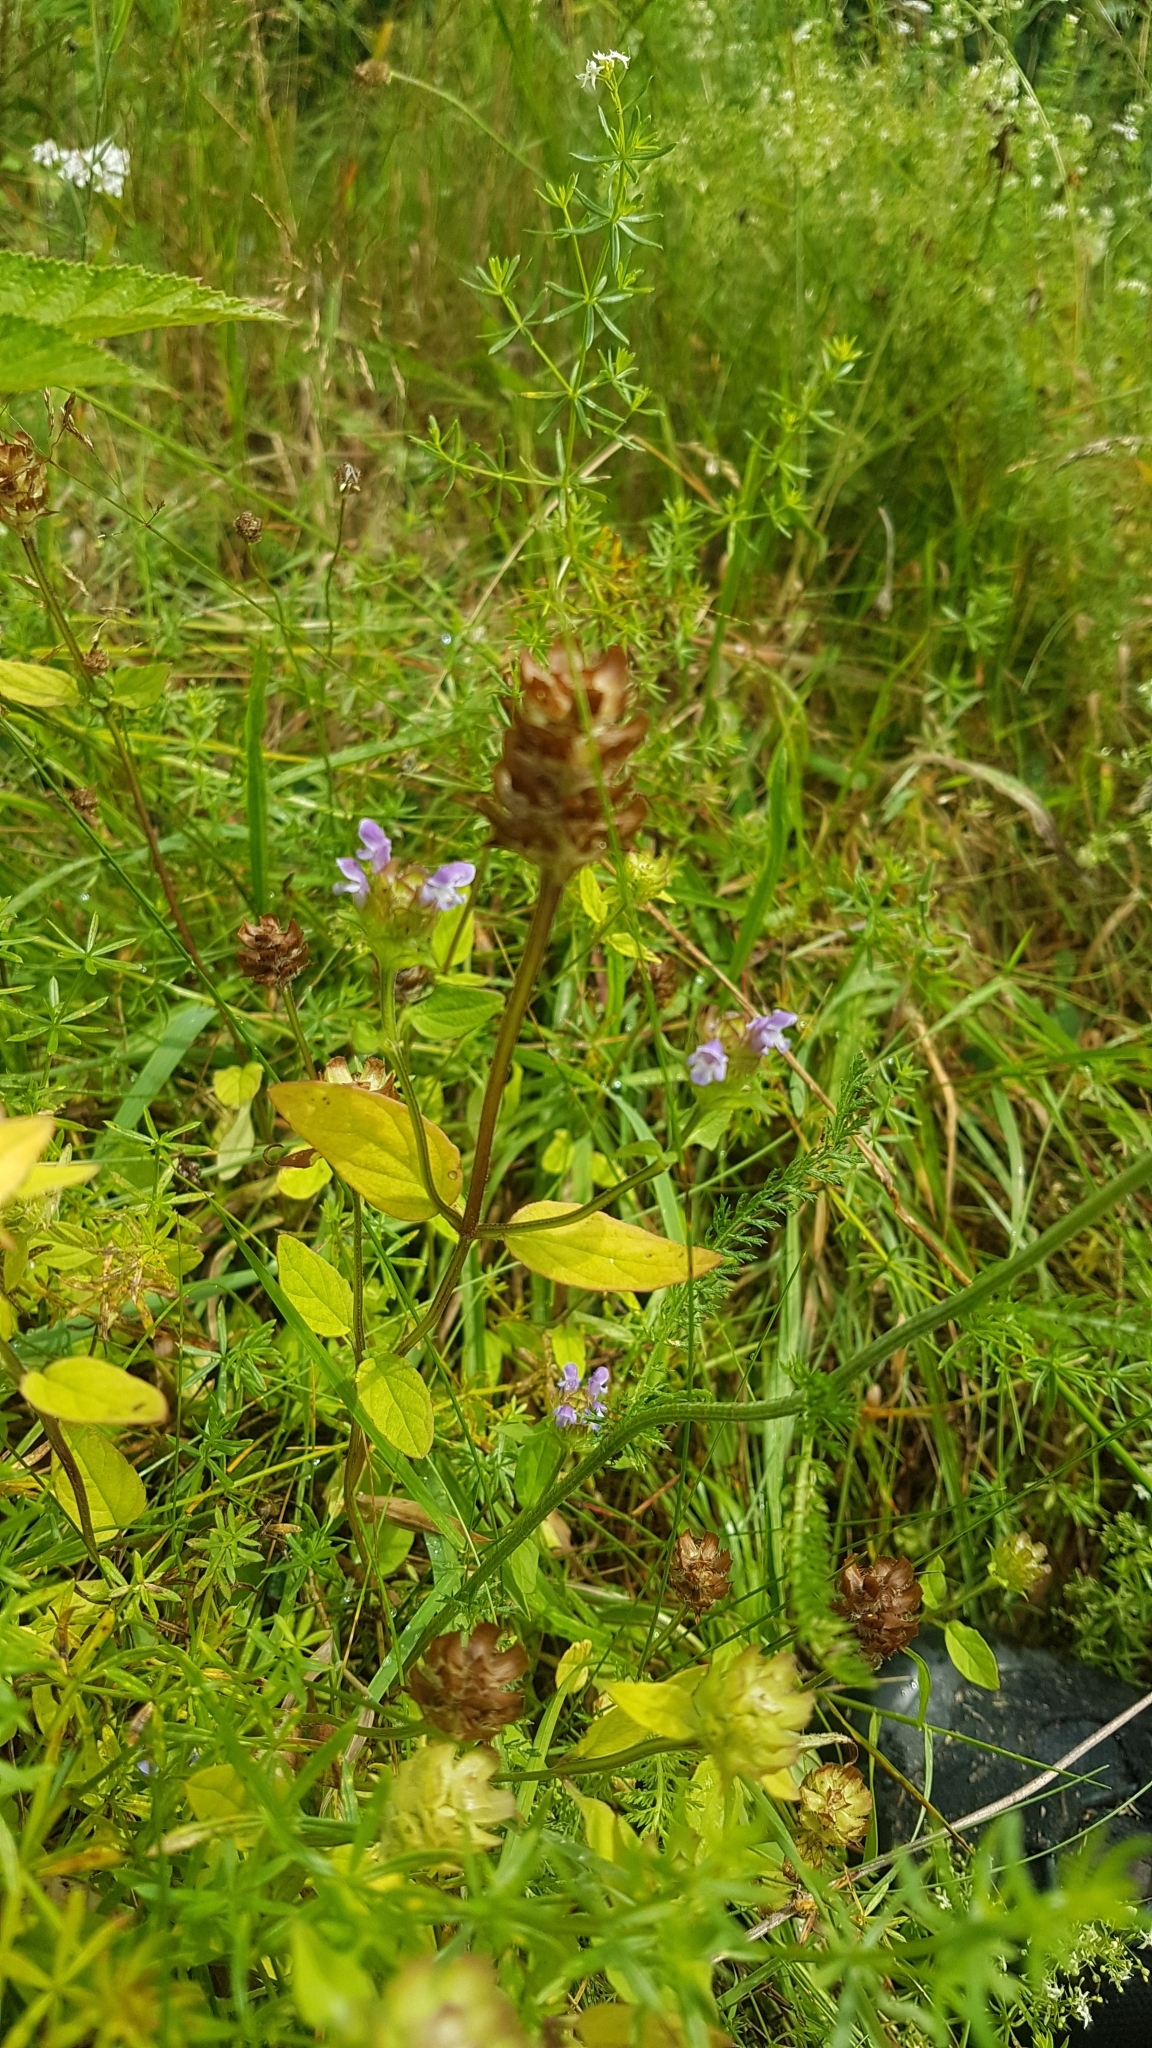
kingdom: Plantae
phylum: Tracheophyta
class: Magnoliopsida
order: Lamiales
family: Lamiaceae
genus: Prunella
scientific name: Prunella vulgaris
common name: Heal-all
